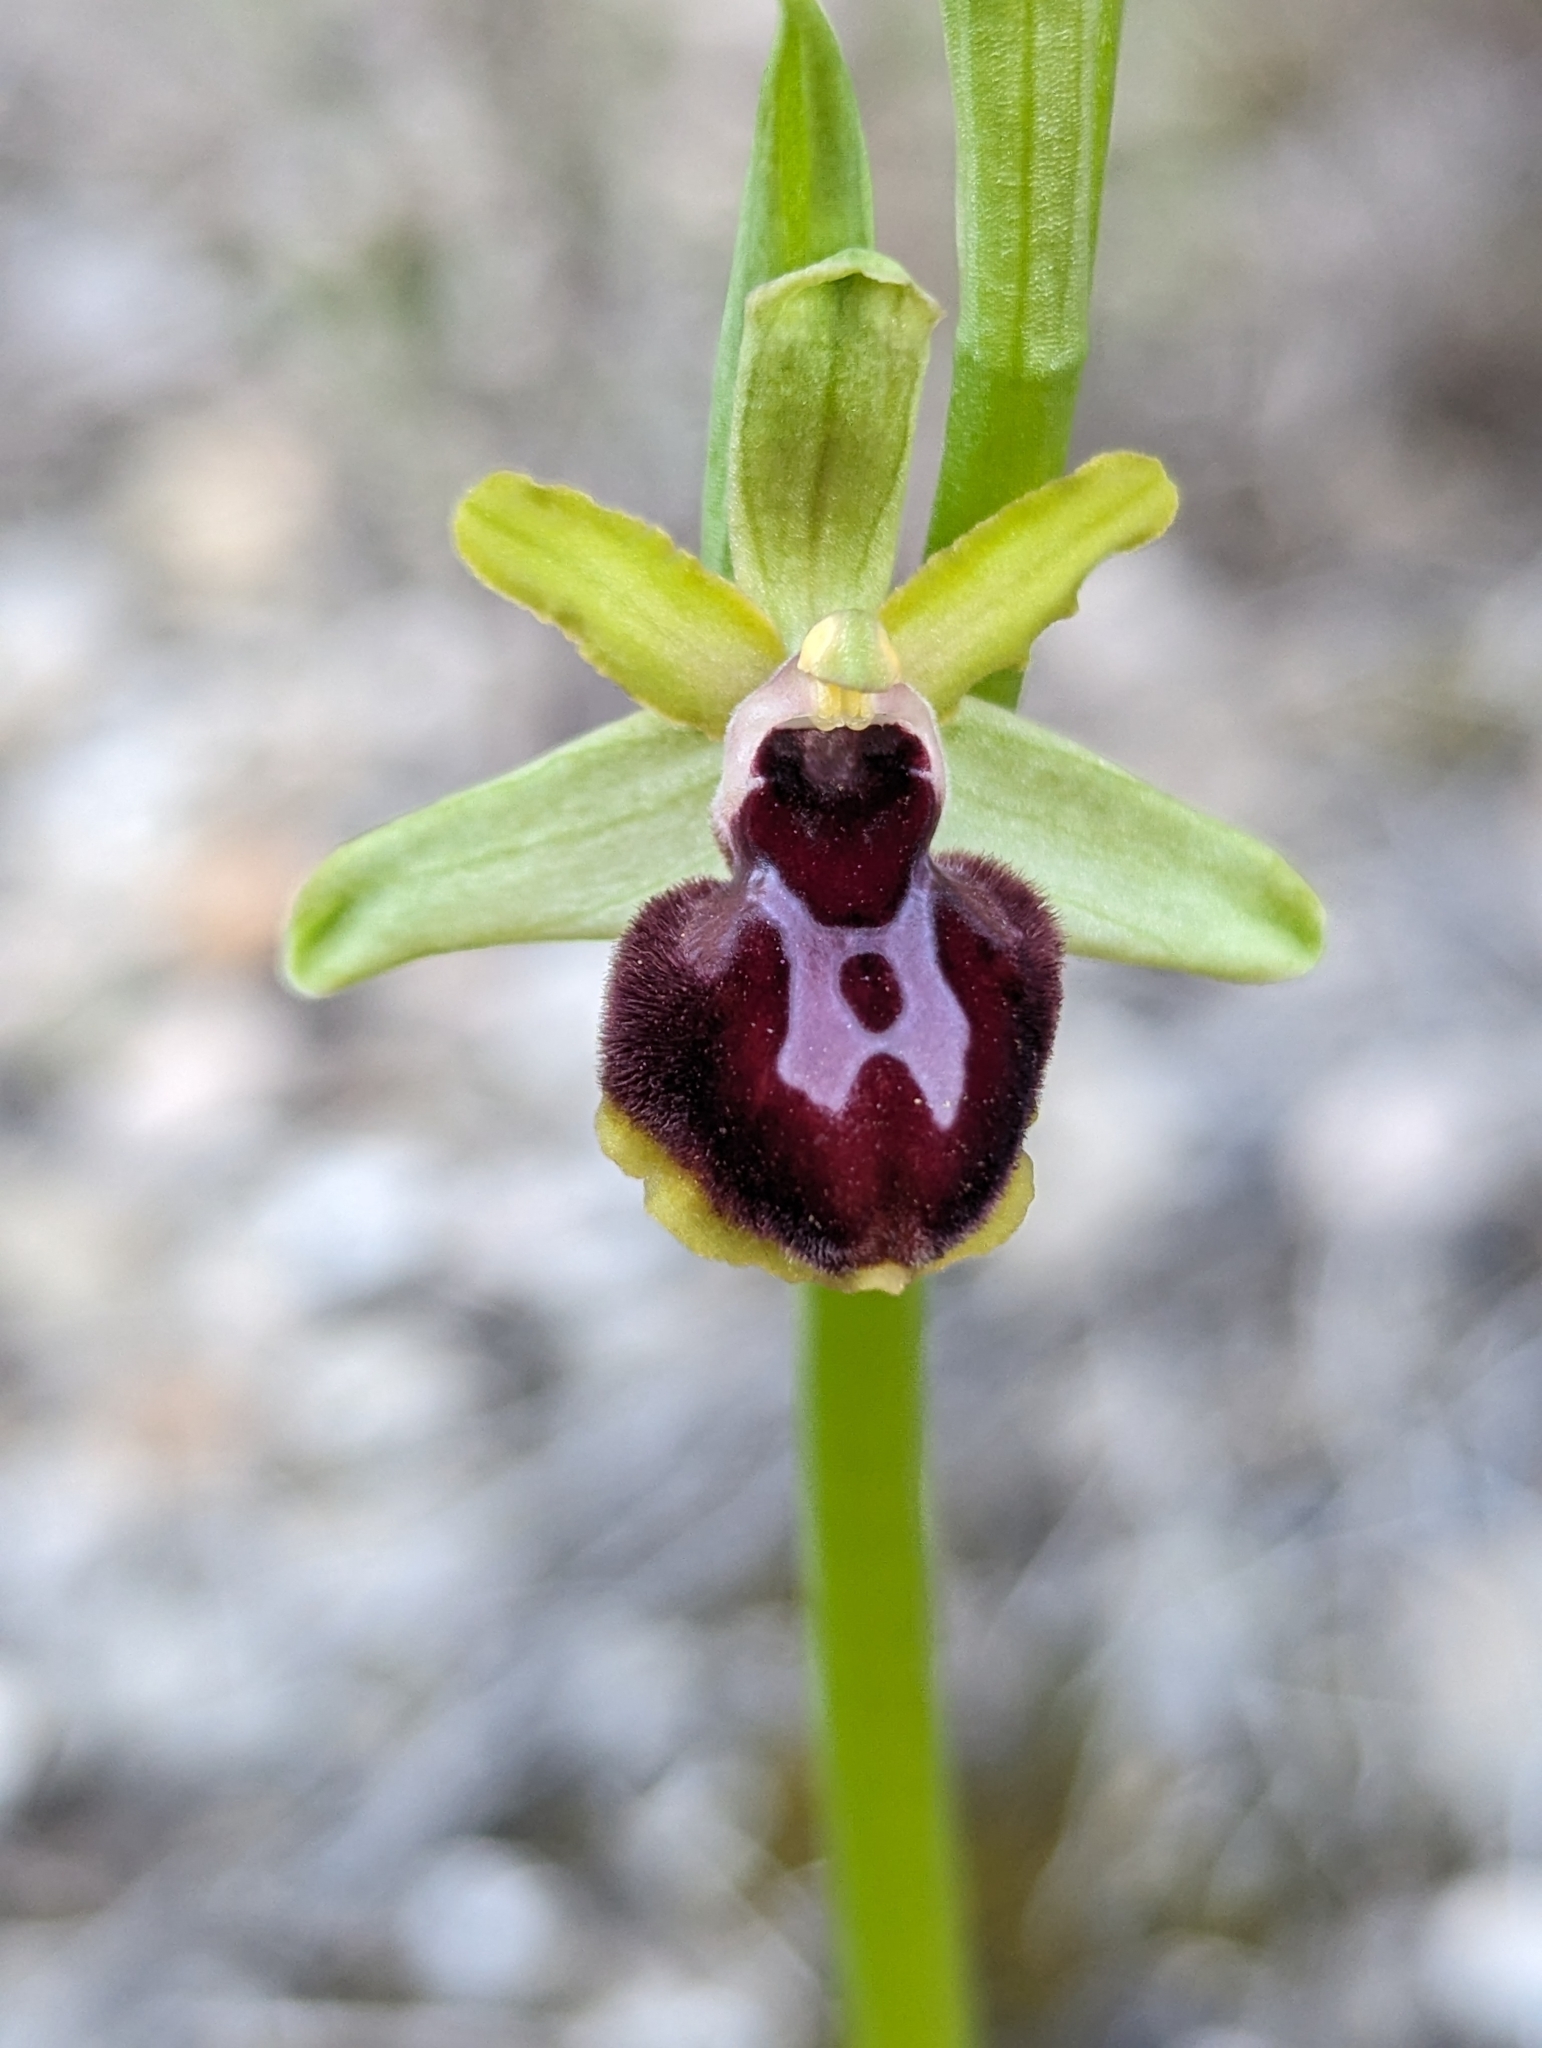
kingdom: Plantae
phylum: Tracheophyta
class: Liliopsida
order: Asparagales
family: Orchidaceae
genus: Ophrys
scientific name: Ophrys sphegodes
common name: Early spider-orchid
